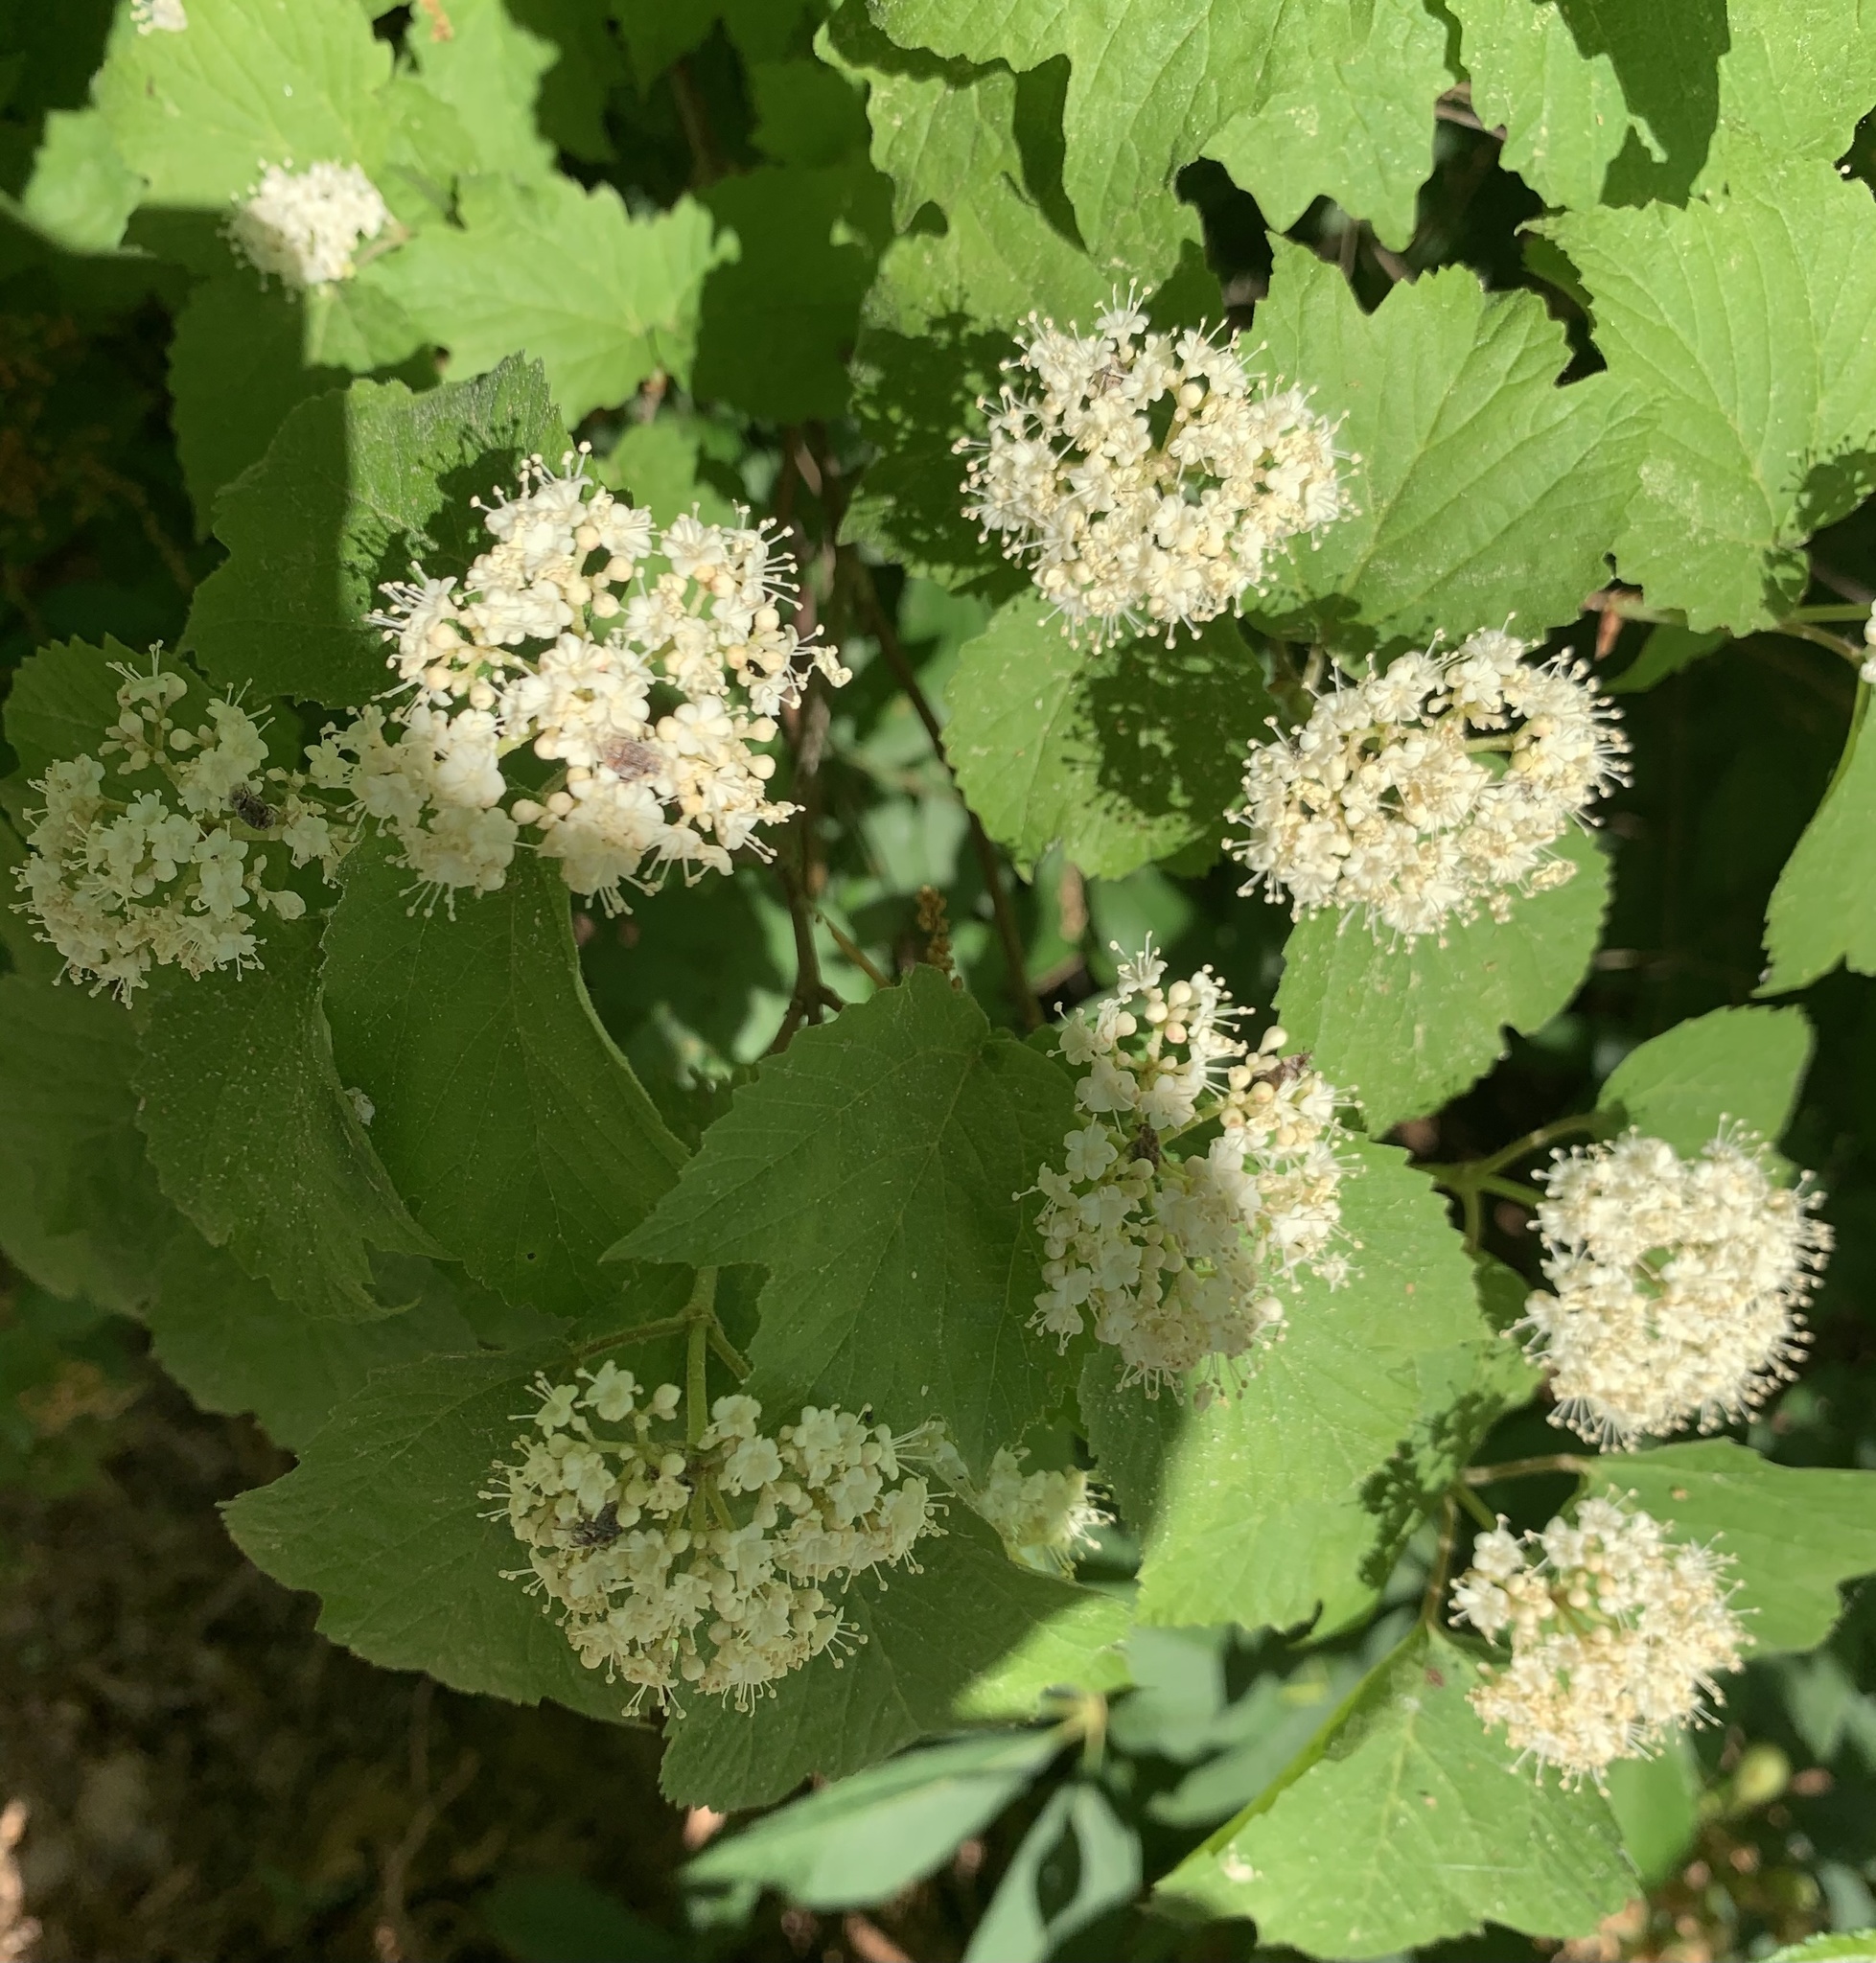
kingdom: Plantae
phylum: Tracheophyta
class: Magnoliopsida
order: Dipsacales
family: Viburnaceae
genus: Viburnum
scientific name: Viburnum acerifolium
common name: Dockmackie
